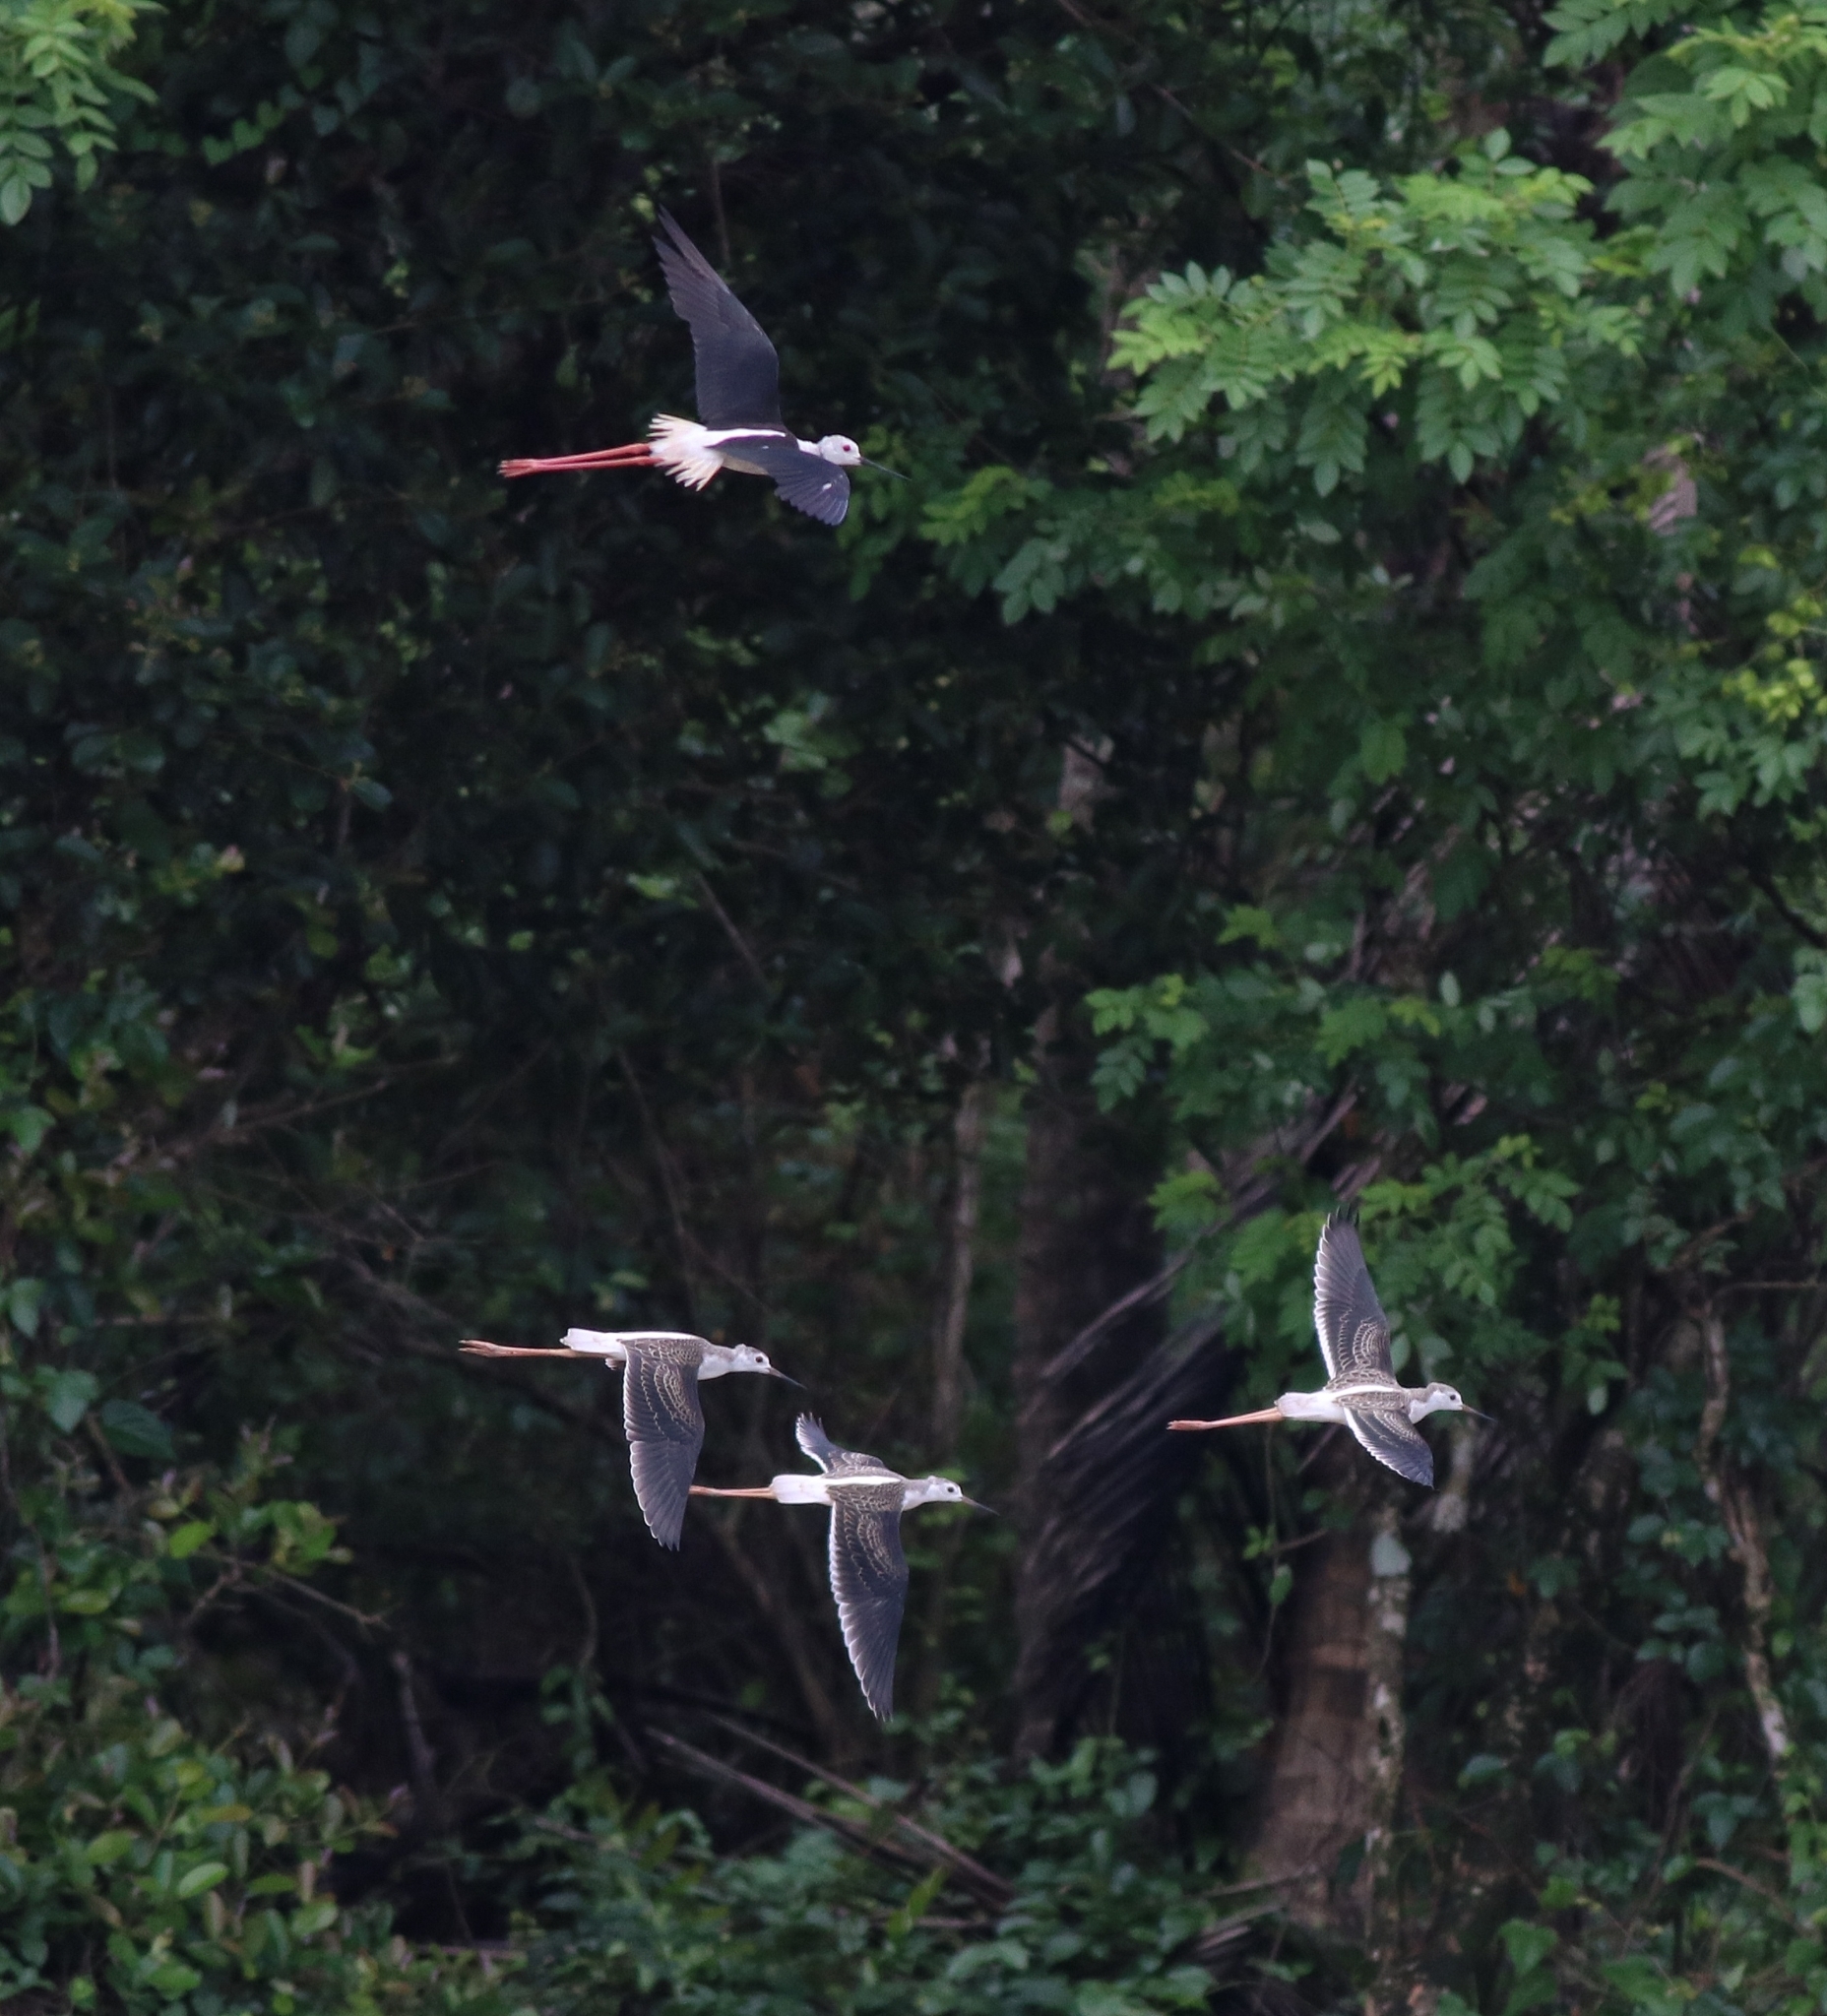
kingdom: Animalia
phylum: Chordata
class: Aves
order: Charadriiformes
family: Recurvirostridae
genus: Himantopus
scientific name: Himantopus himantopus
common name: Black-winged stilt
